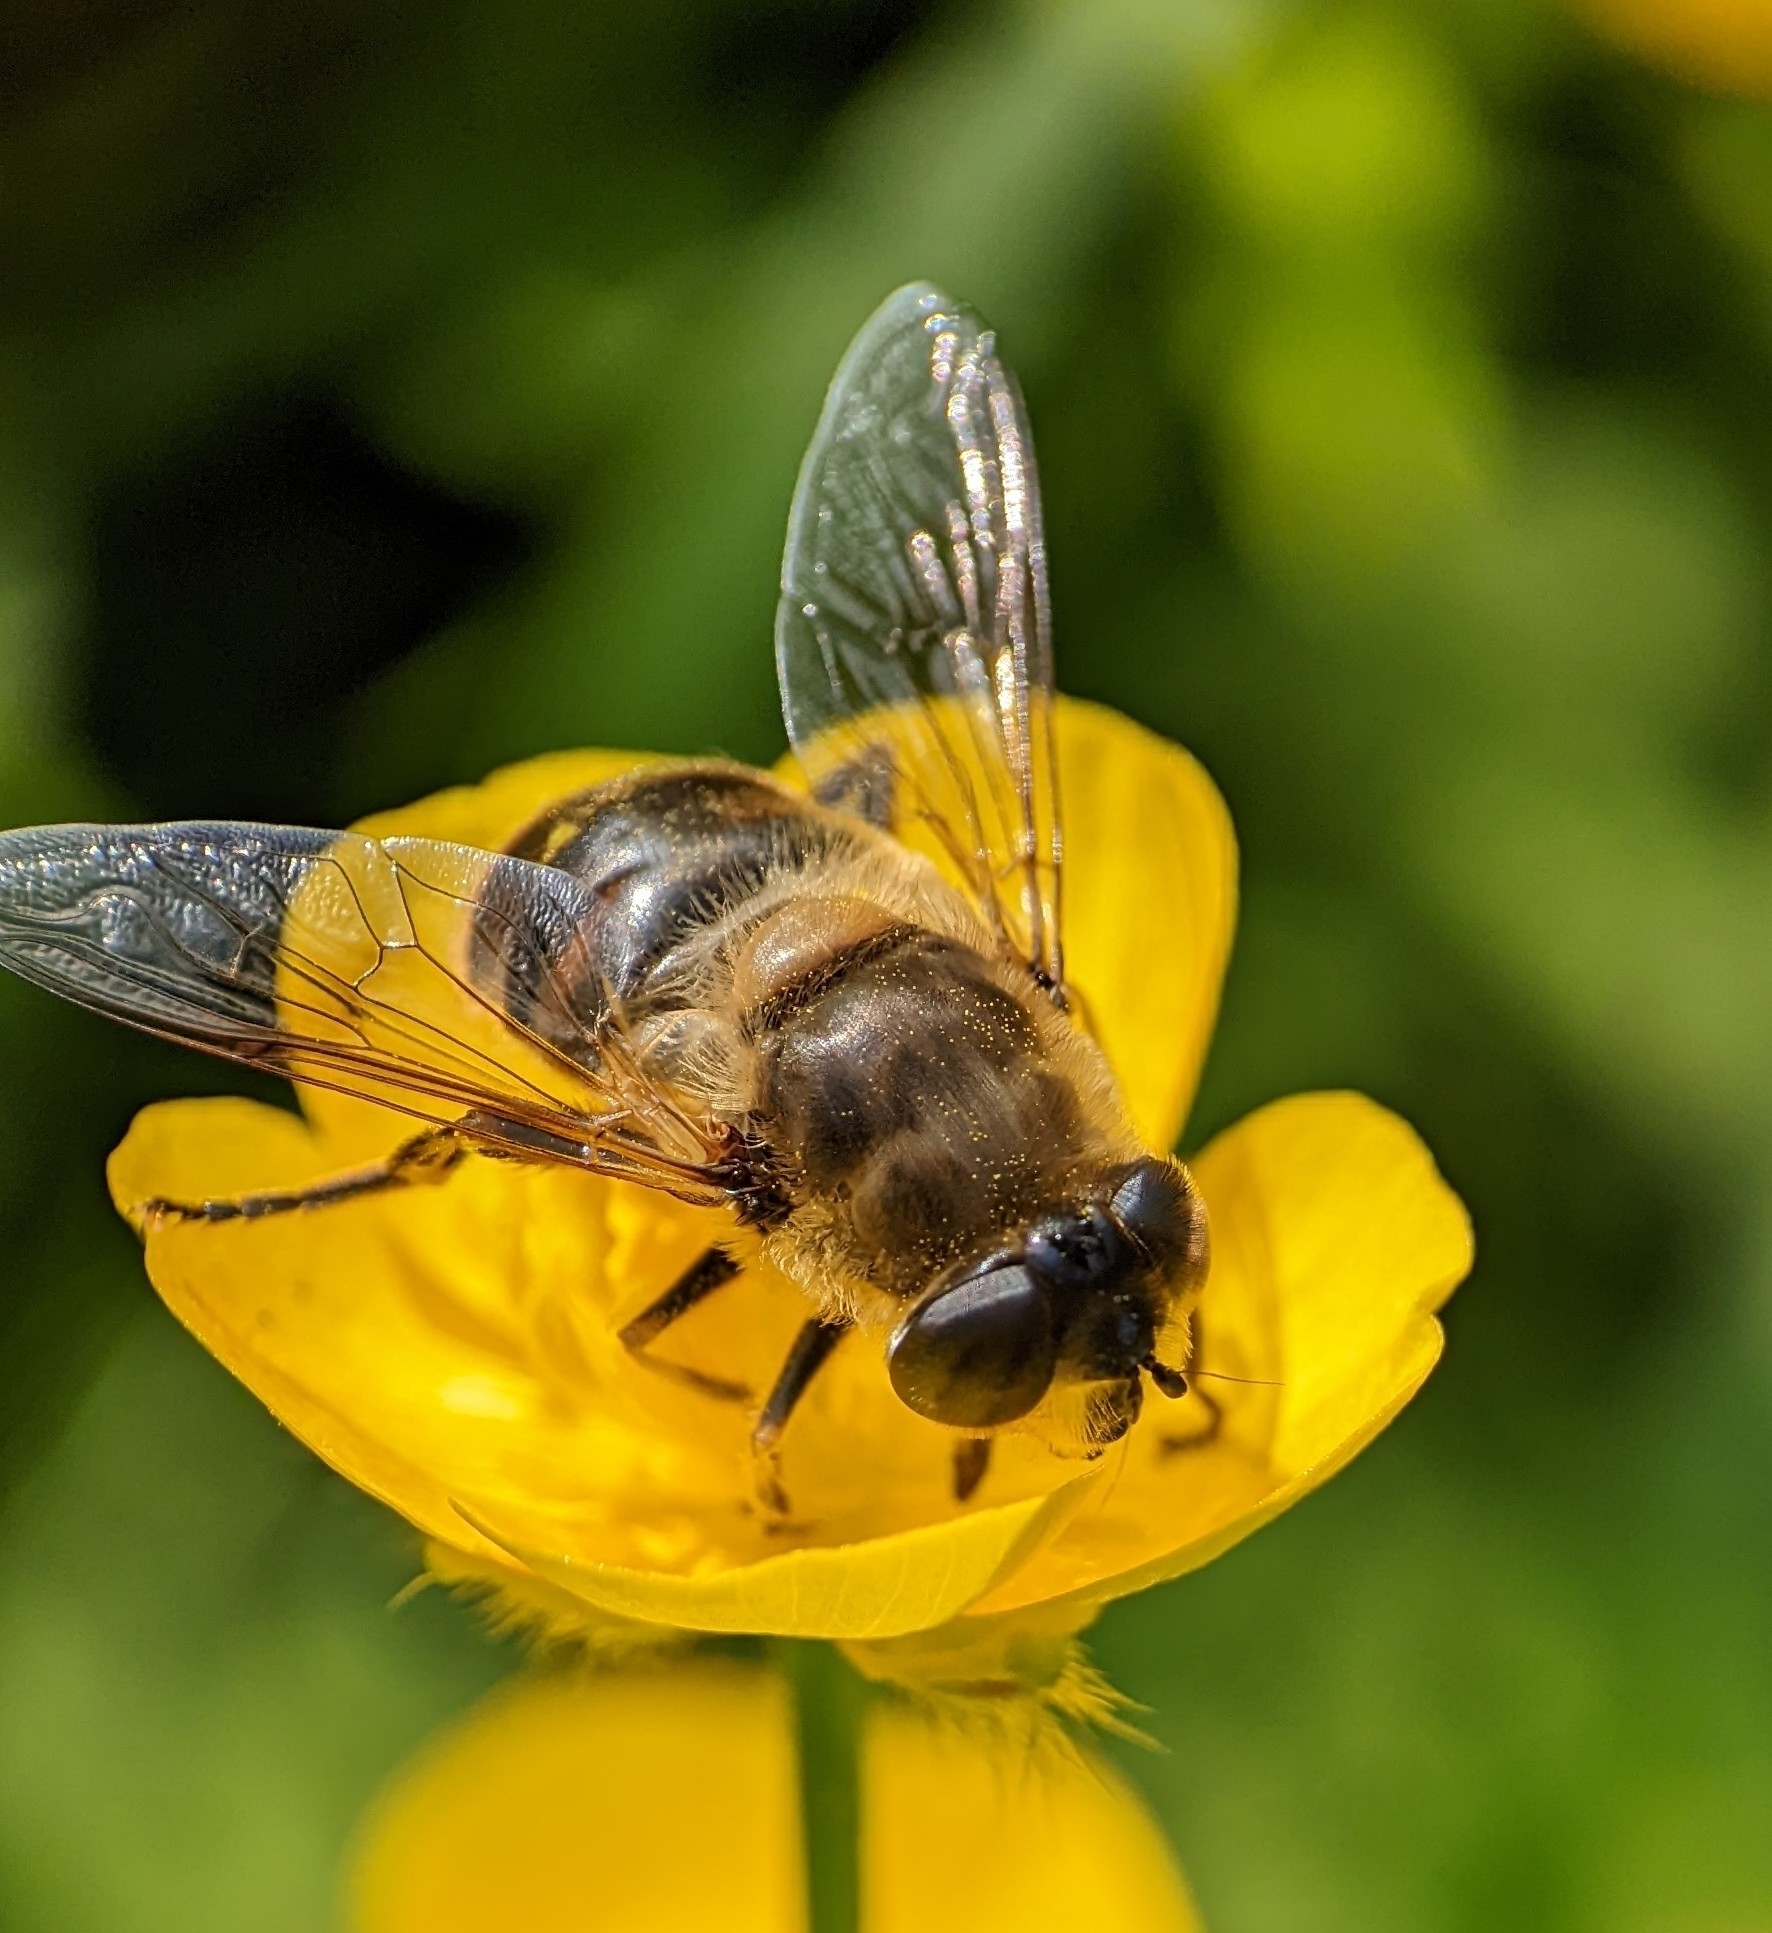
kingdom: Animalia
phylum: Arthropoda
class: Insecta
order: Diptera
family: Syrphidae
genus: Eristalis
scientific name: Eristalis tenax
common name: Drone fly
